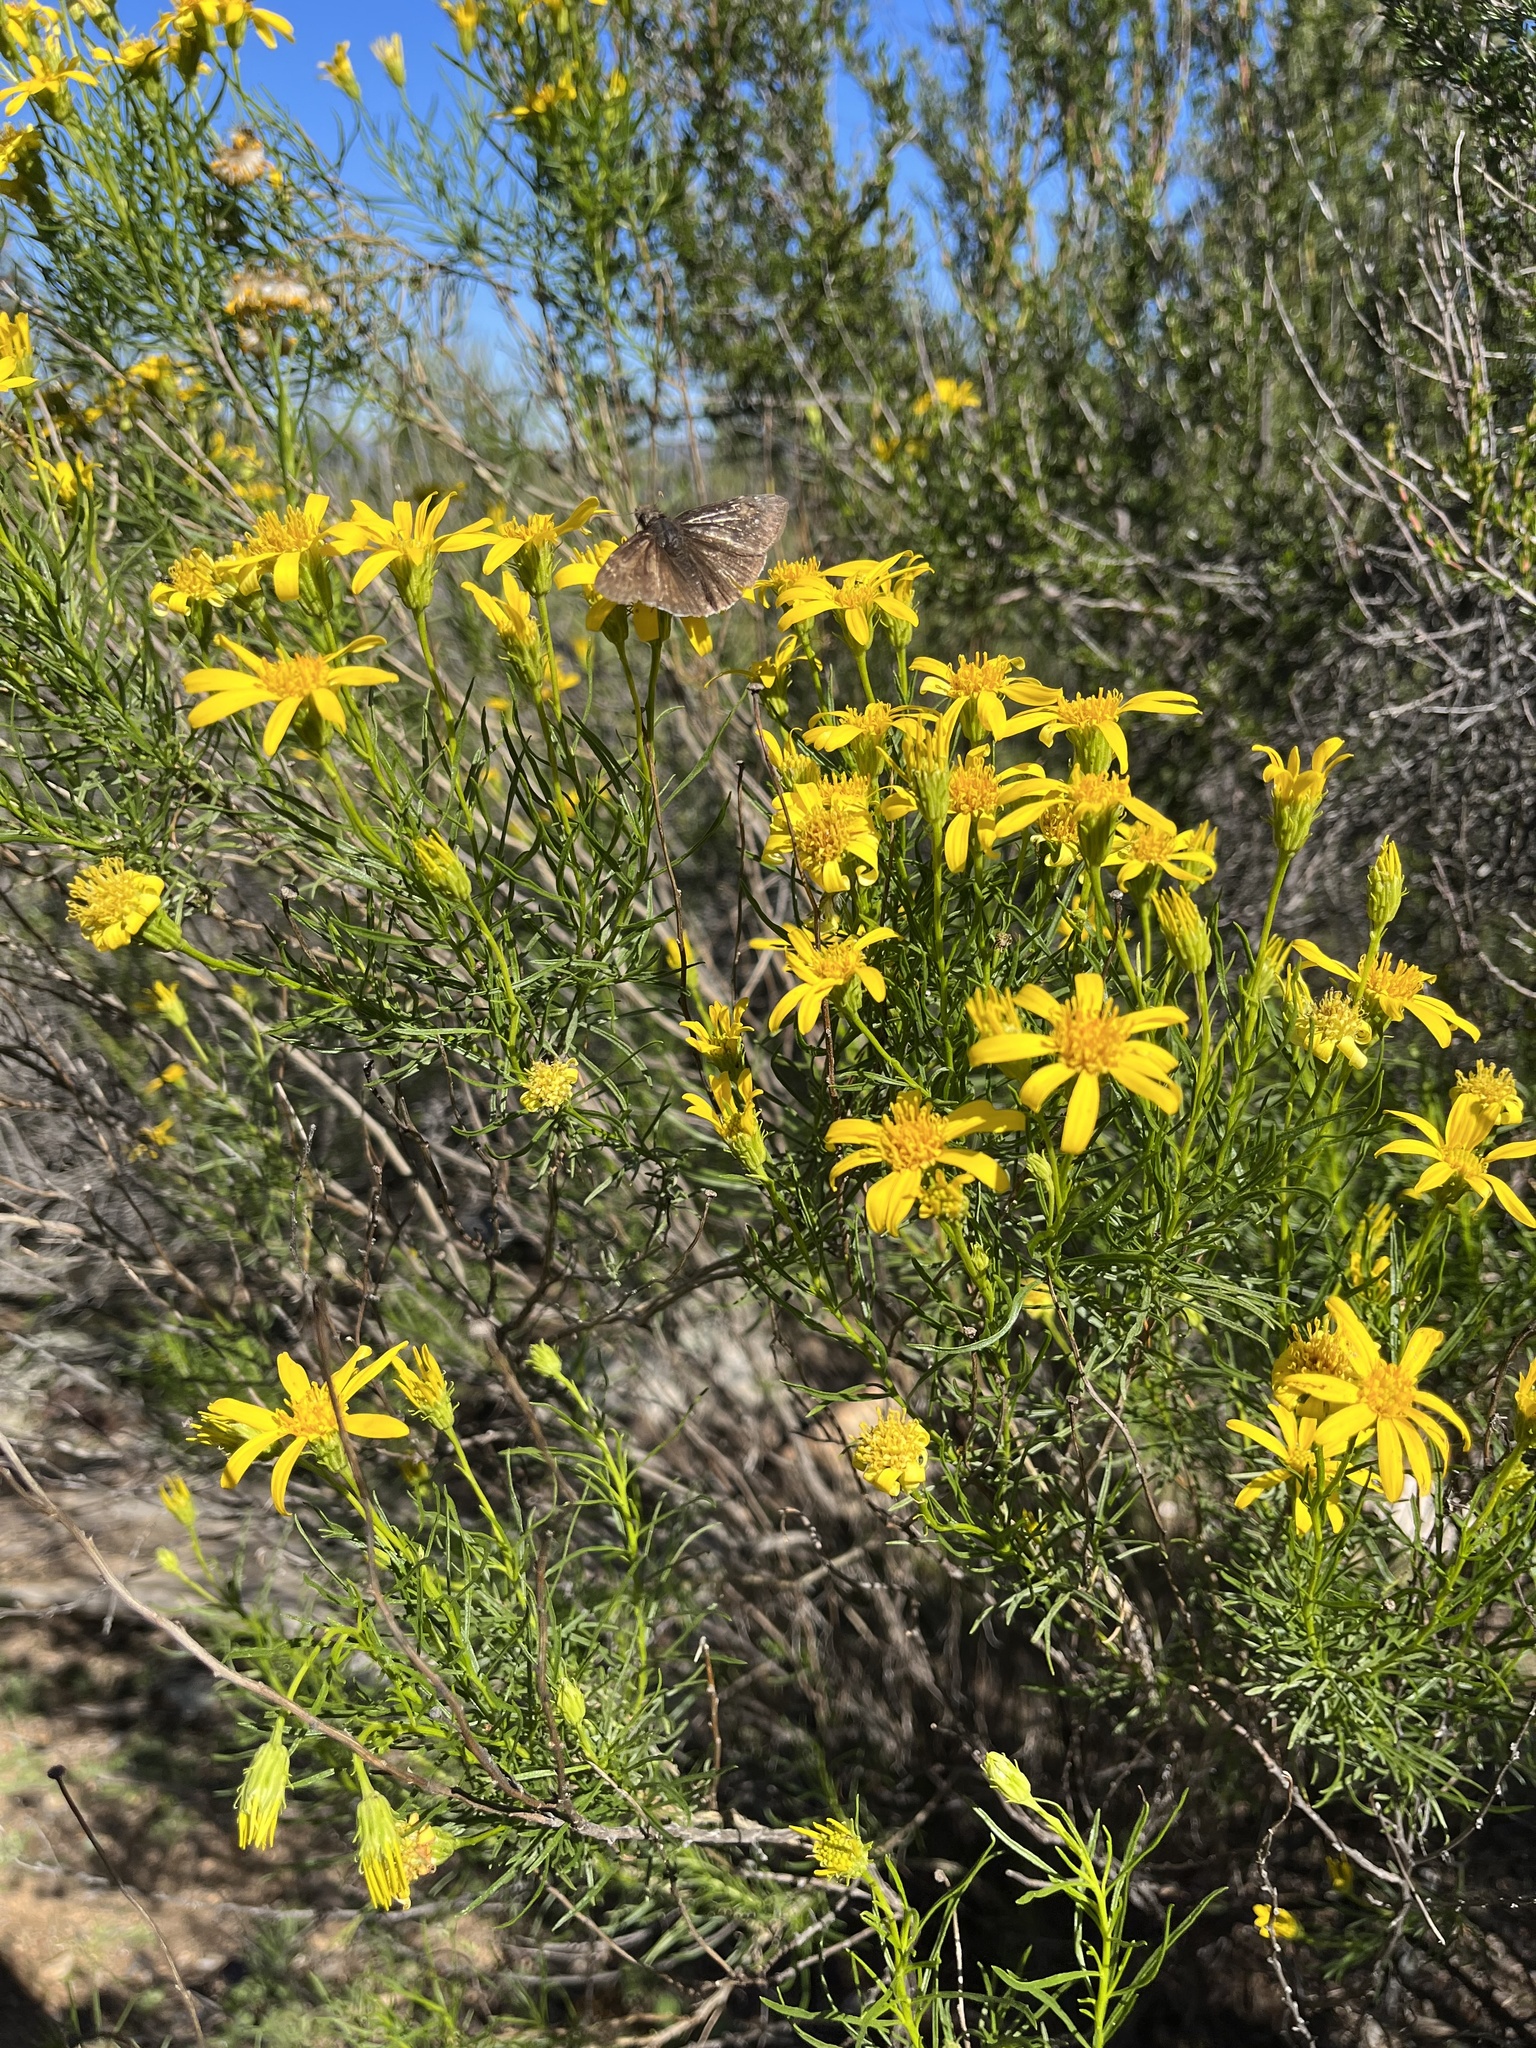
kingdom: Plantae
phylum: Tracheophyta
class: Magnoliopsida
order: Asterales
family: Asteraceae
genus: Ericameria
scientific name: Ericameria linearifolia
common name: Interior goldenbush
